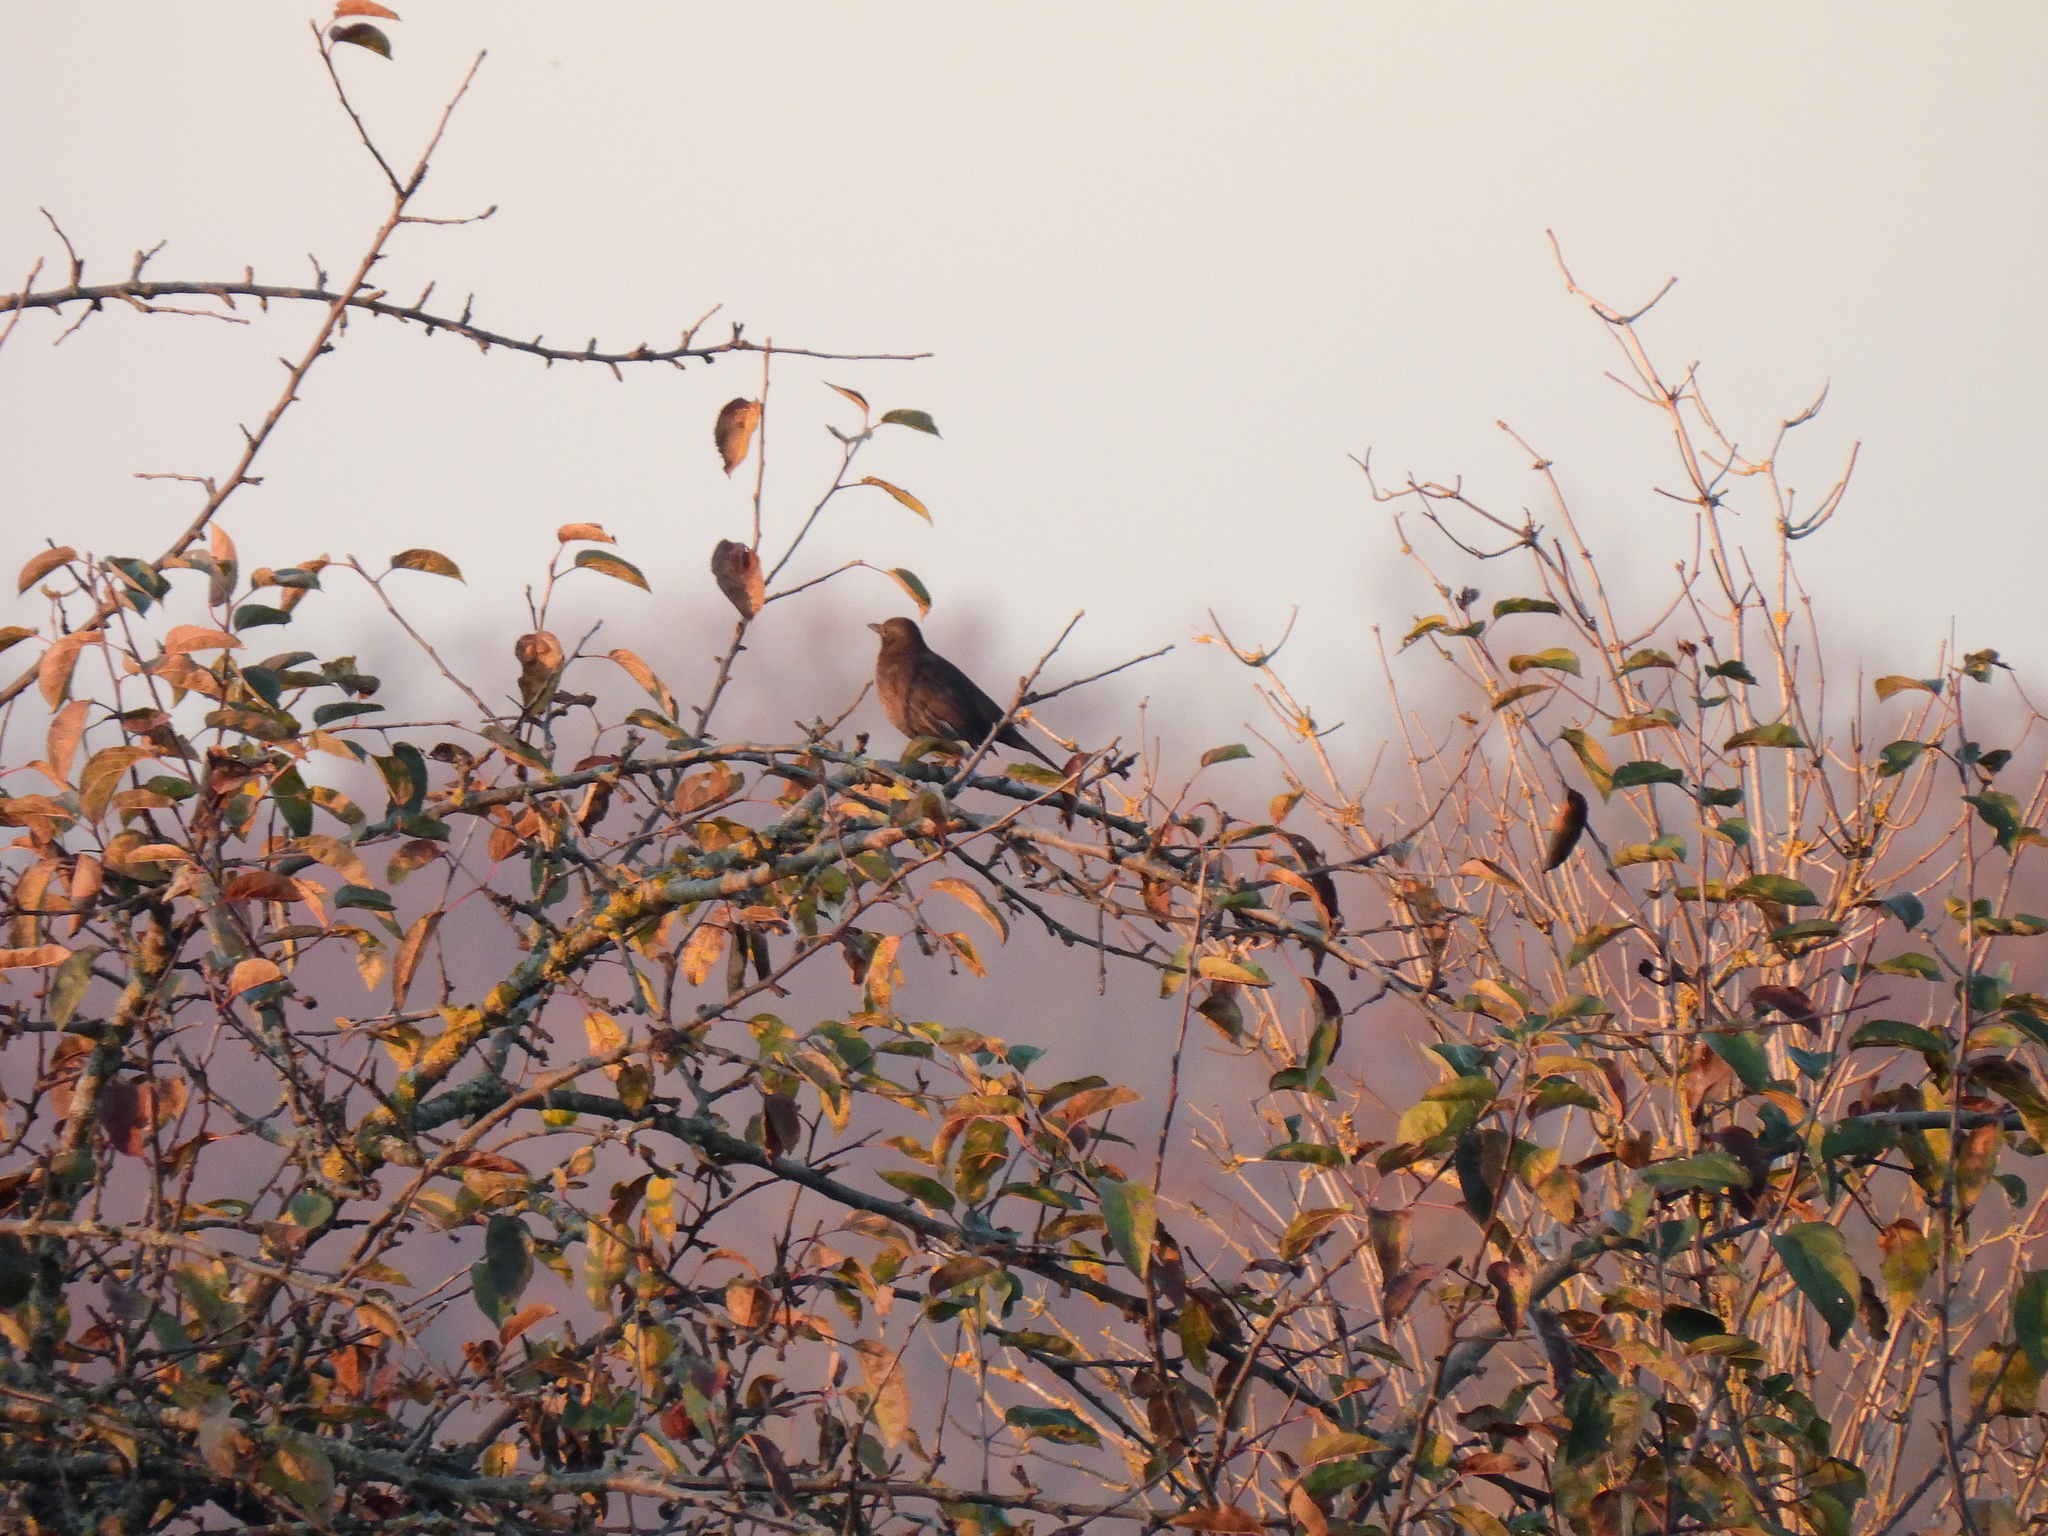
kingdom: Animalia
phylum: Chordata
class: Aves
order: Passeriformes
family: Turdidae
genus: Turdus
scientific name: Turdus merula
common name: Common blackbird
